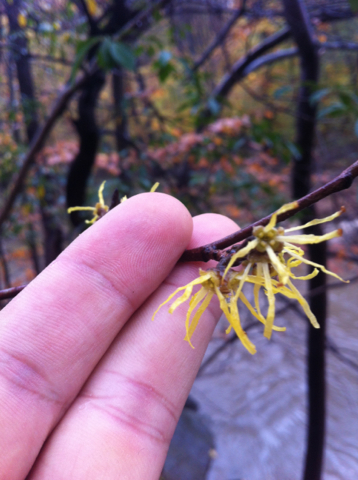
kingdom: Plantae
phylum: Tracheophyta
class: Magnoliopsida
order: Saxifragales
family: Hamamelidaceae
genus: Hamamelis
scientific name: Hamamelis virginiana
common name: Witch-hazel
